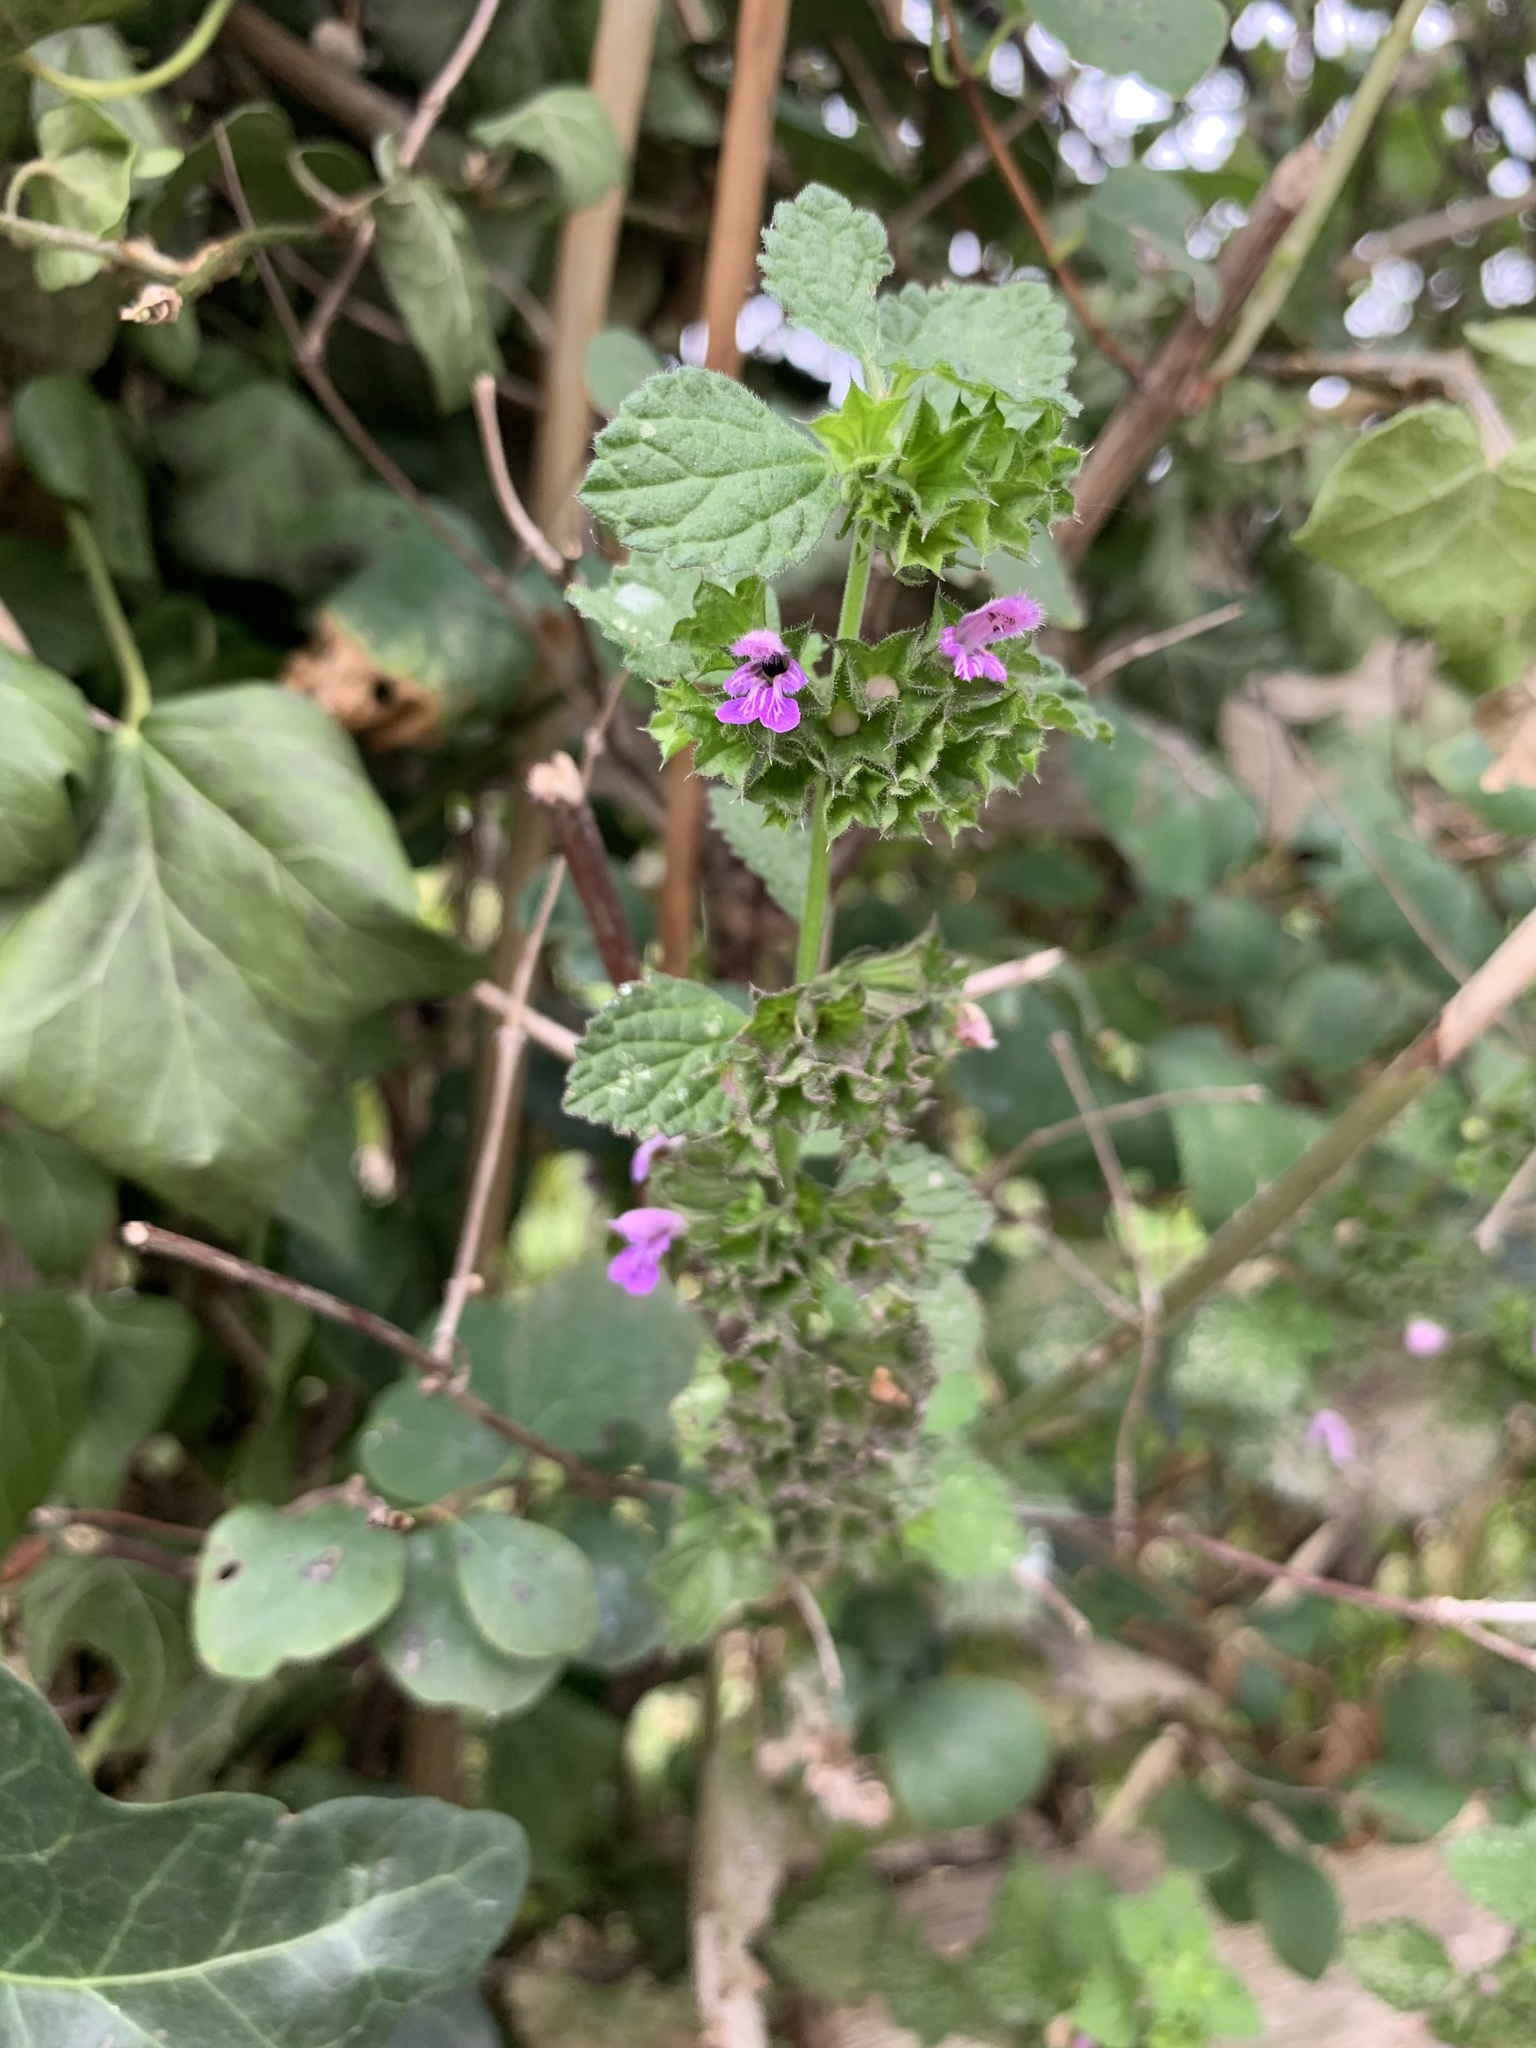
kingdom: Plantae
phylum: Tracheophyta
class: Magnoliopsida
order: Lamiales
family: Lamiaceae
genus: Ballota
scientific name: Ballota nigra
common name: Black horehound
